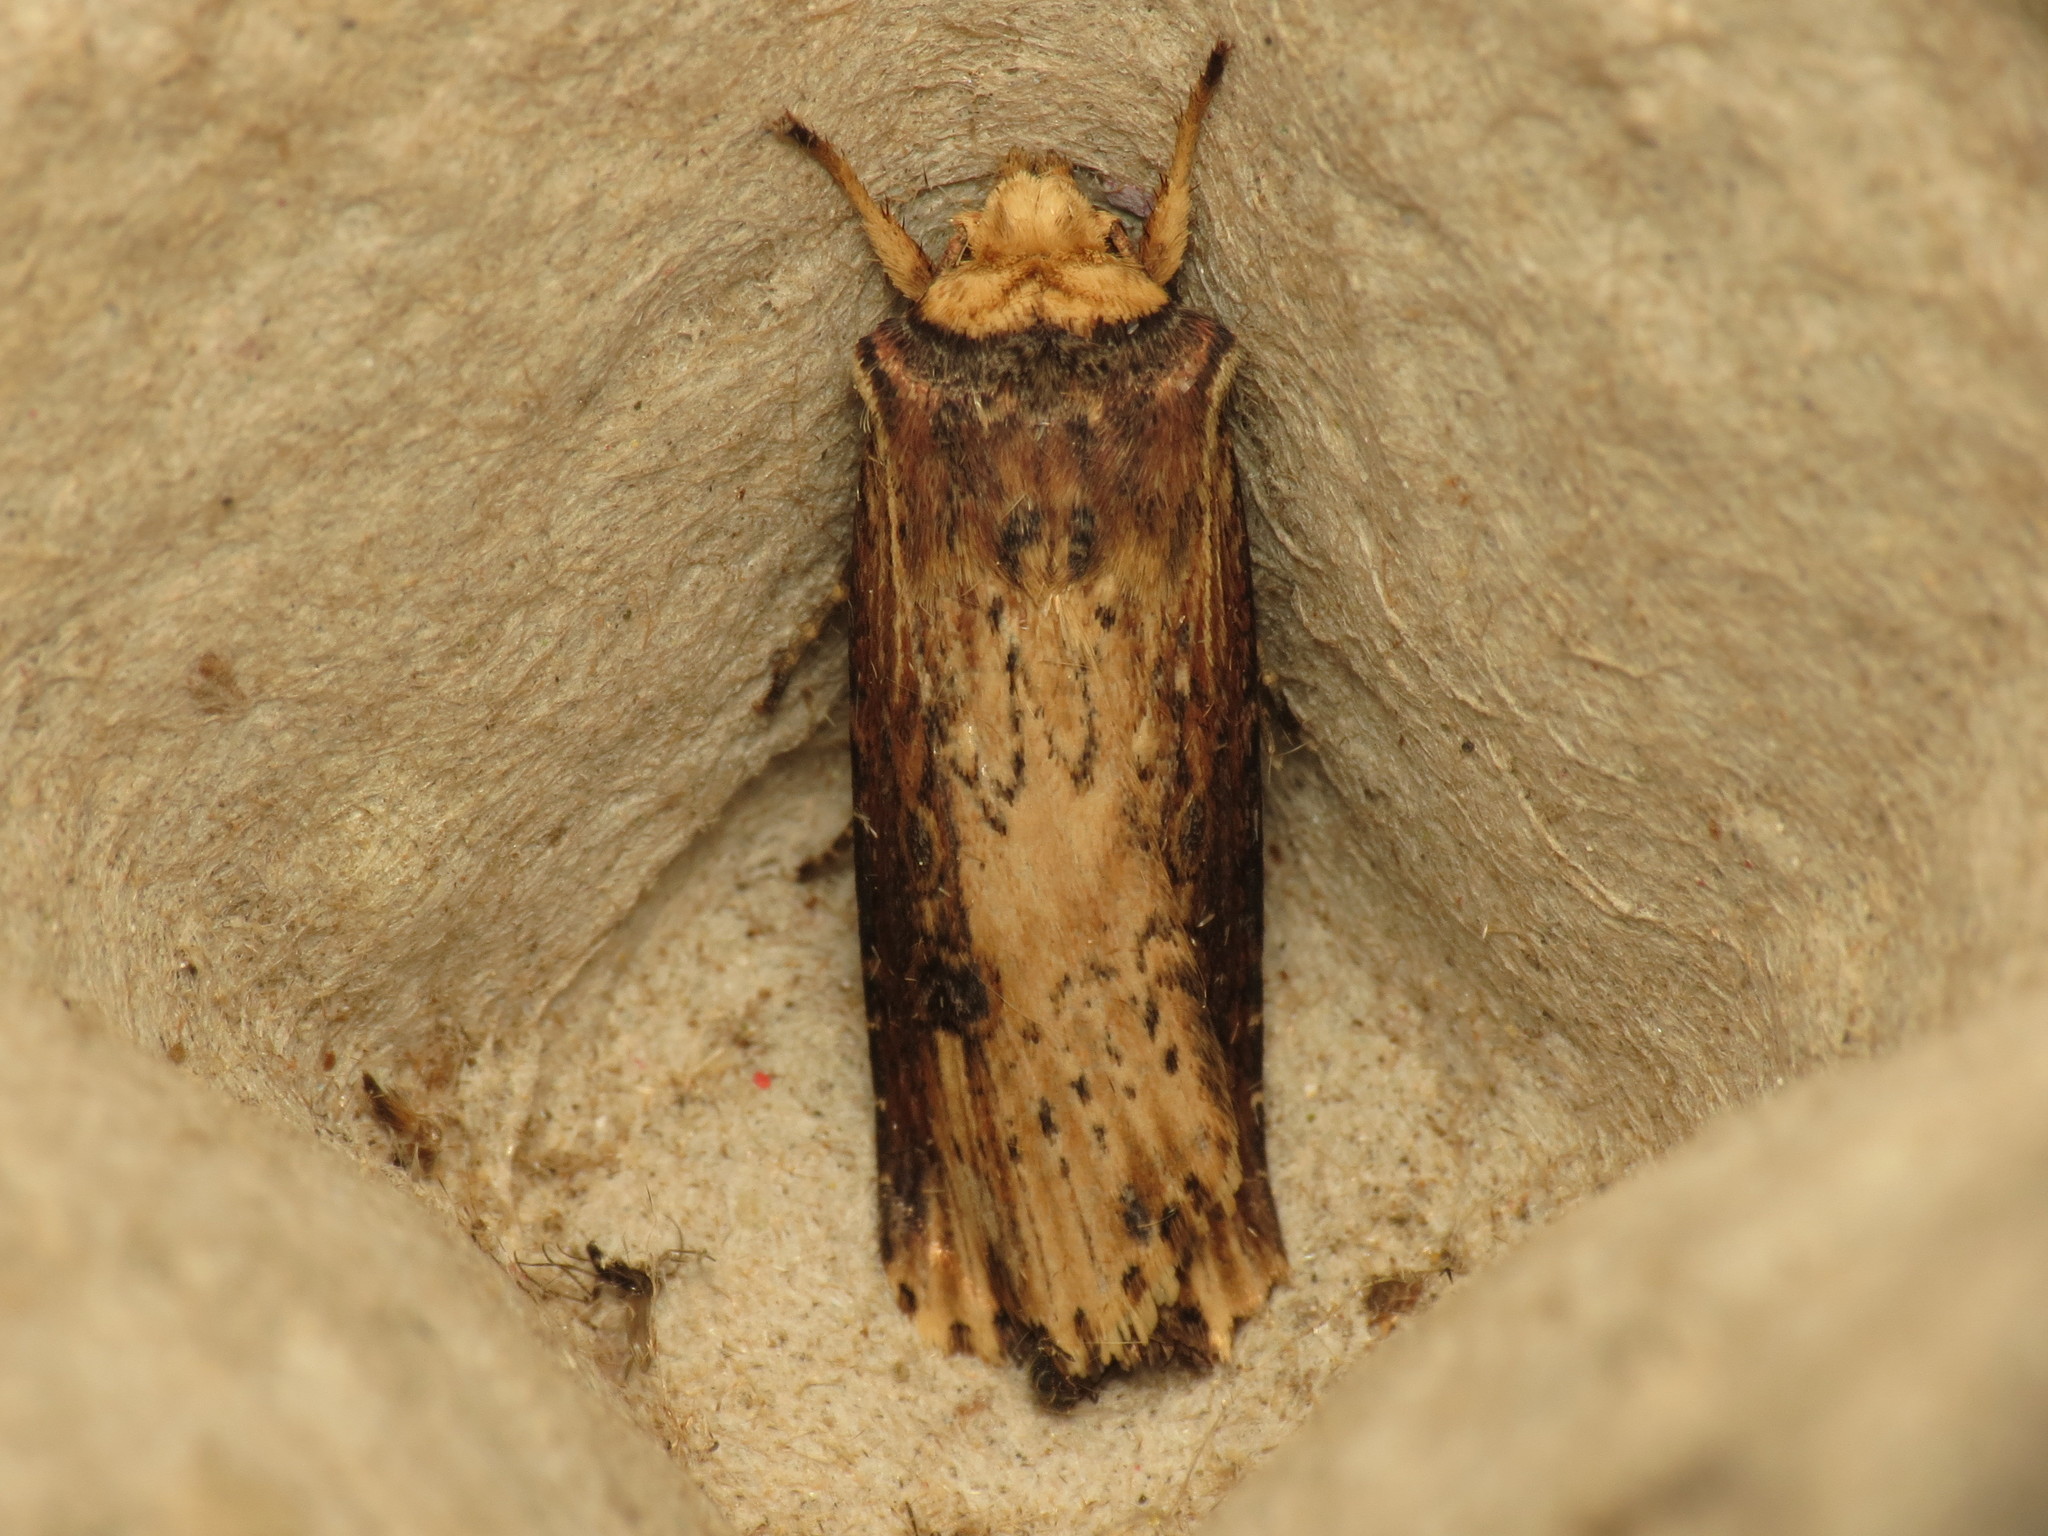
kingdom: Animalia
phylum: Arthropoda
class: Insecta
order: Lepidoptera
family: Noctuidae
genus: Axylia
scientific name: Axylia putris
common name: Flame
